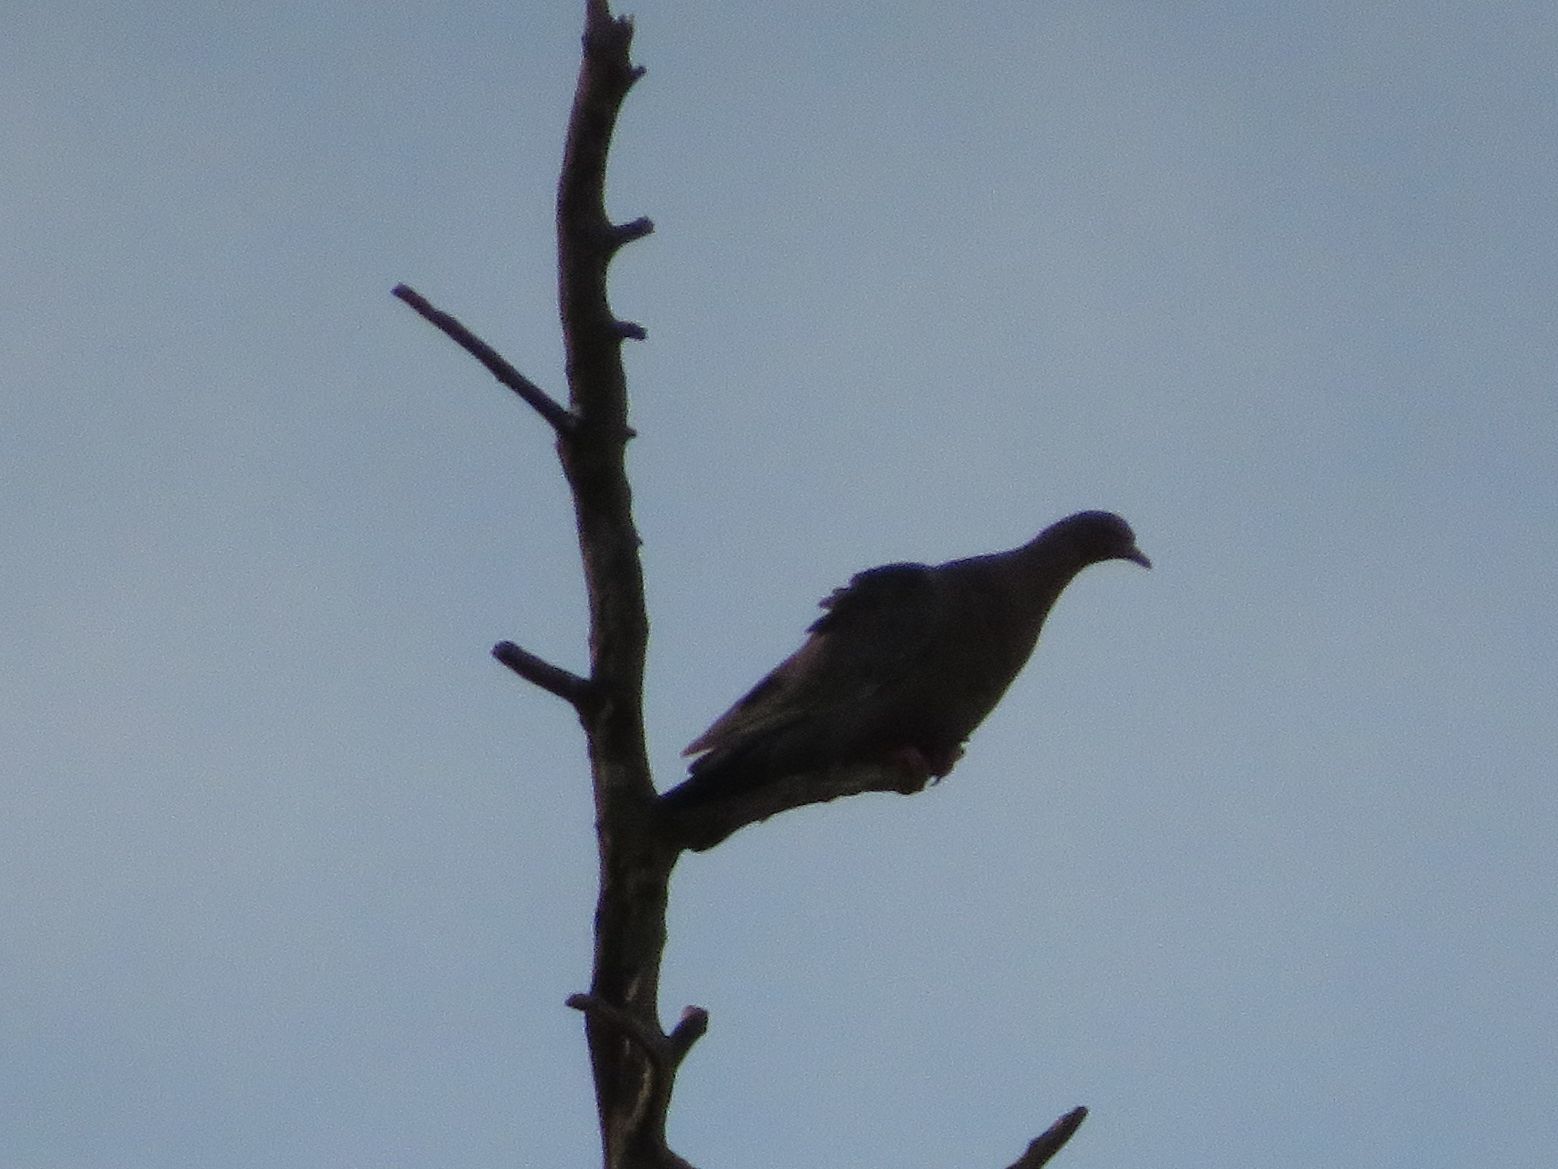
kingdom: Animalia
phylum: Chordata
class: Aves
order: Columbiformes
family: Columbidae
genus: Patagioenas
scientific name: Patagioenas picazuro
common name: Picazuro pigeon
